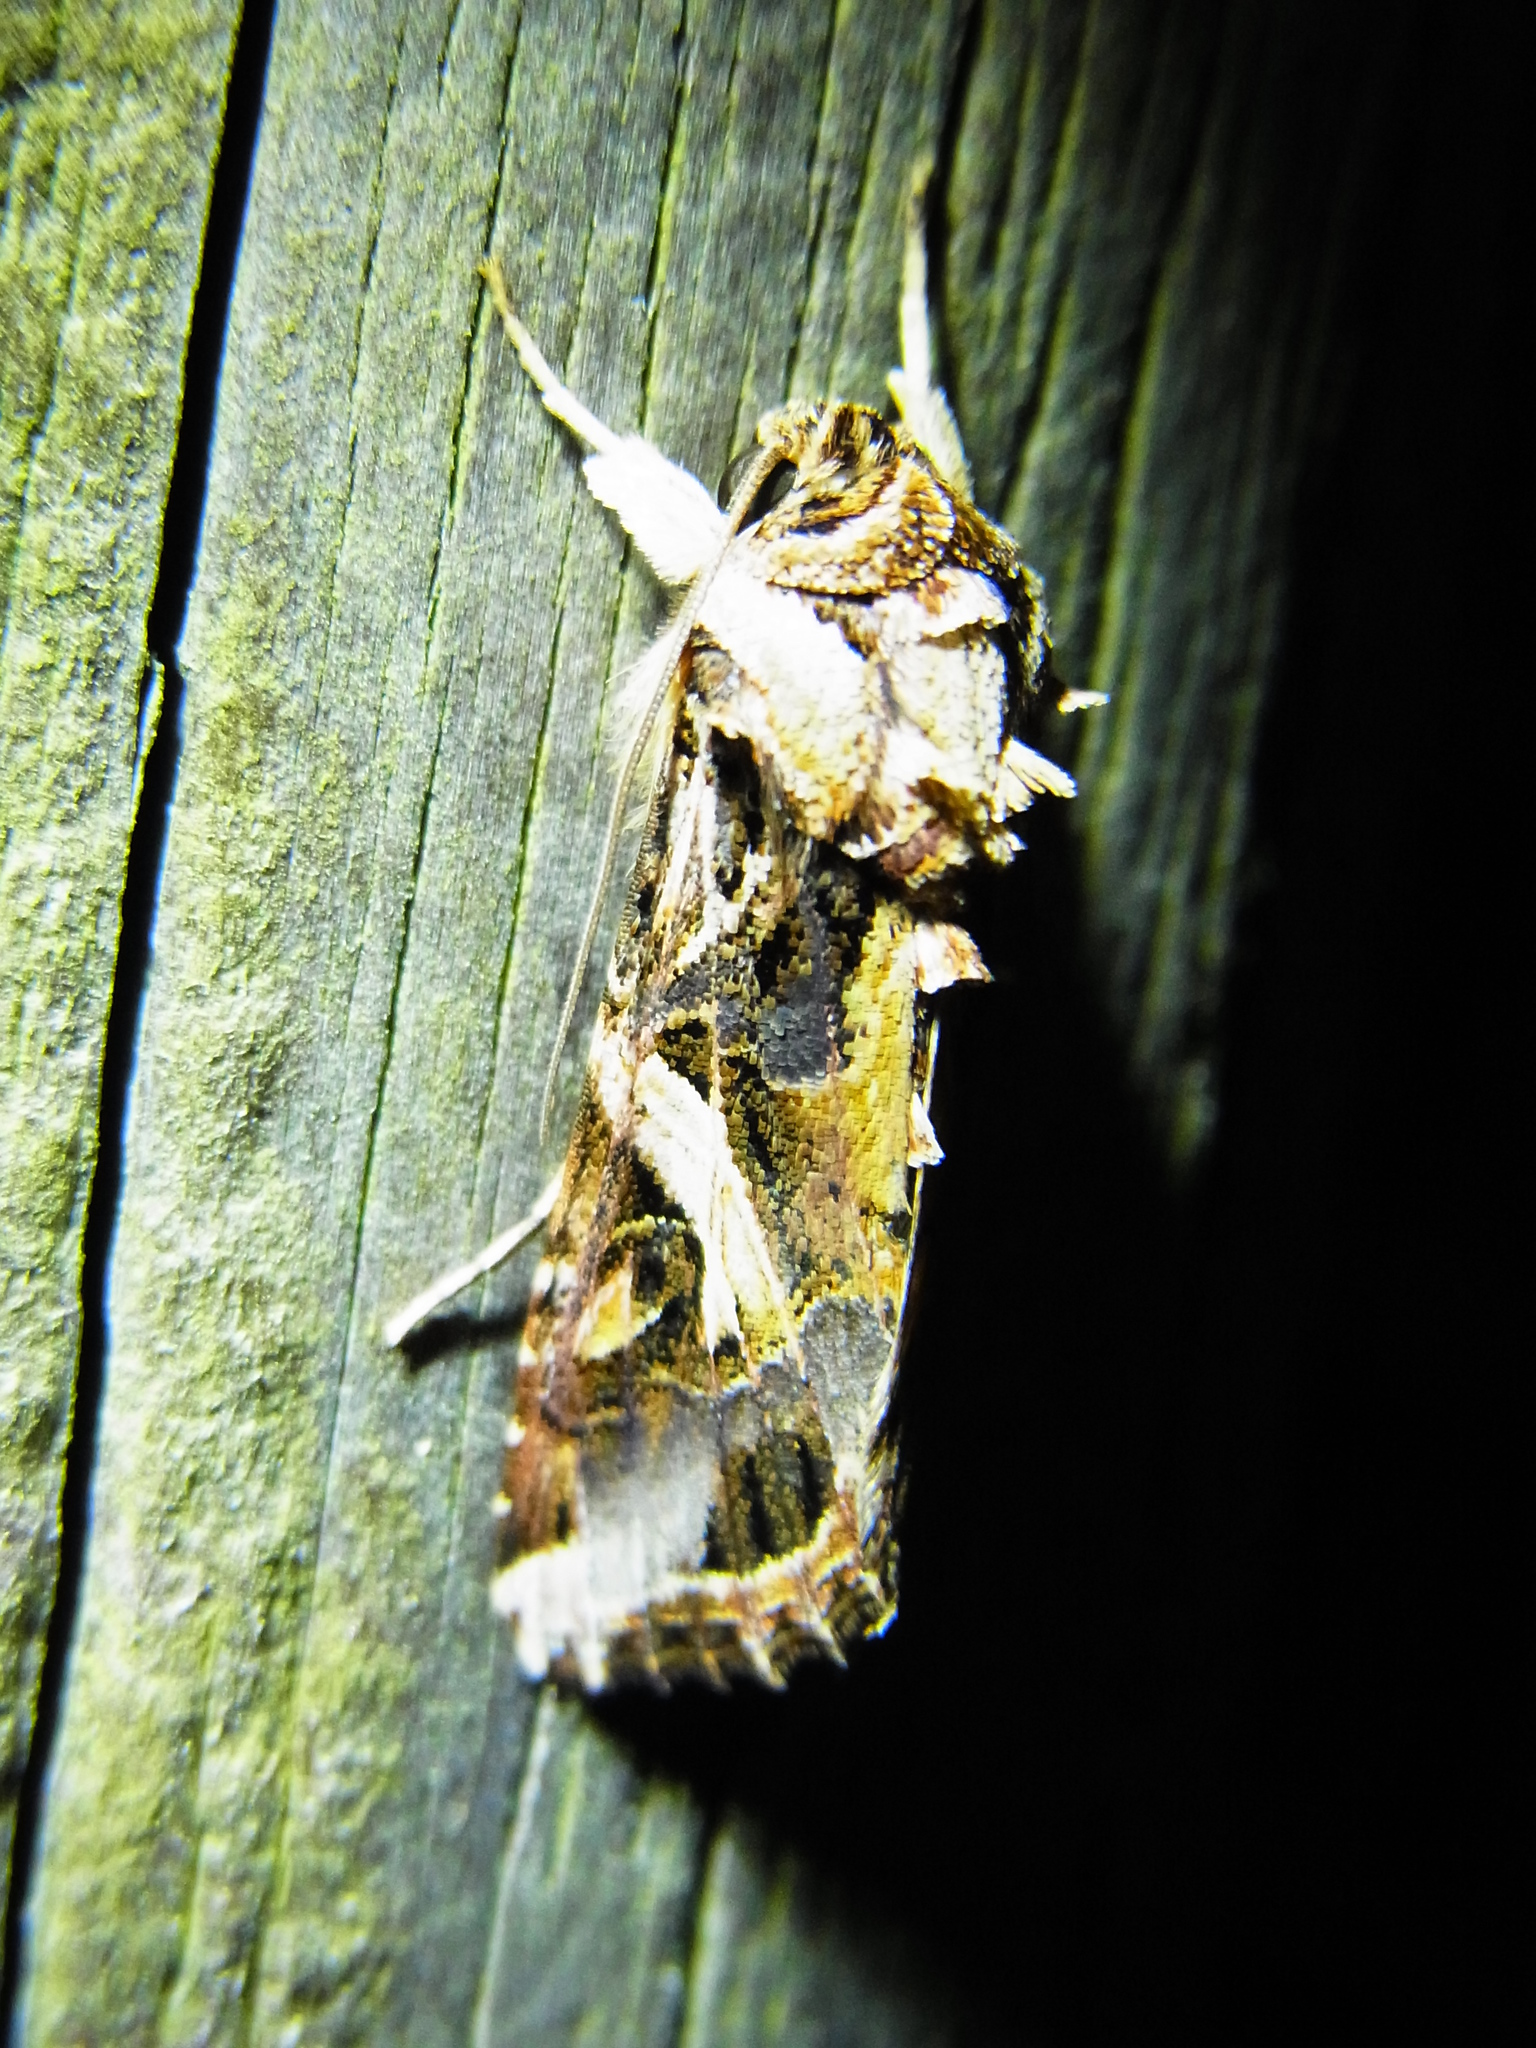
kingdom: Animalia
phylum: Arthropoda
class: Insecta
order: Lepidoptera
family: Noctuidae
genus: Spodoptera
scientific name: Spodoptera litura
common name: Asian cotton leafworm
